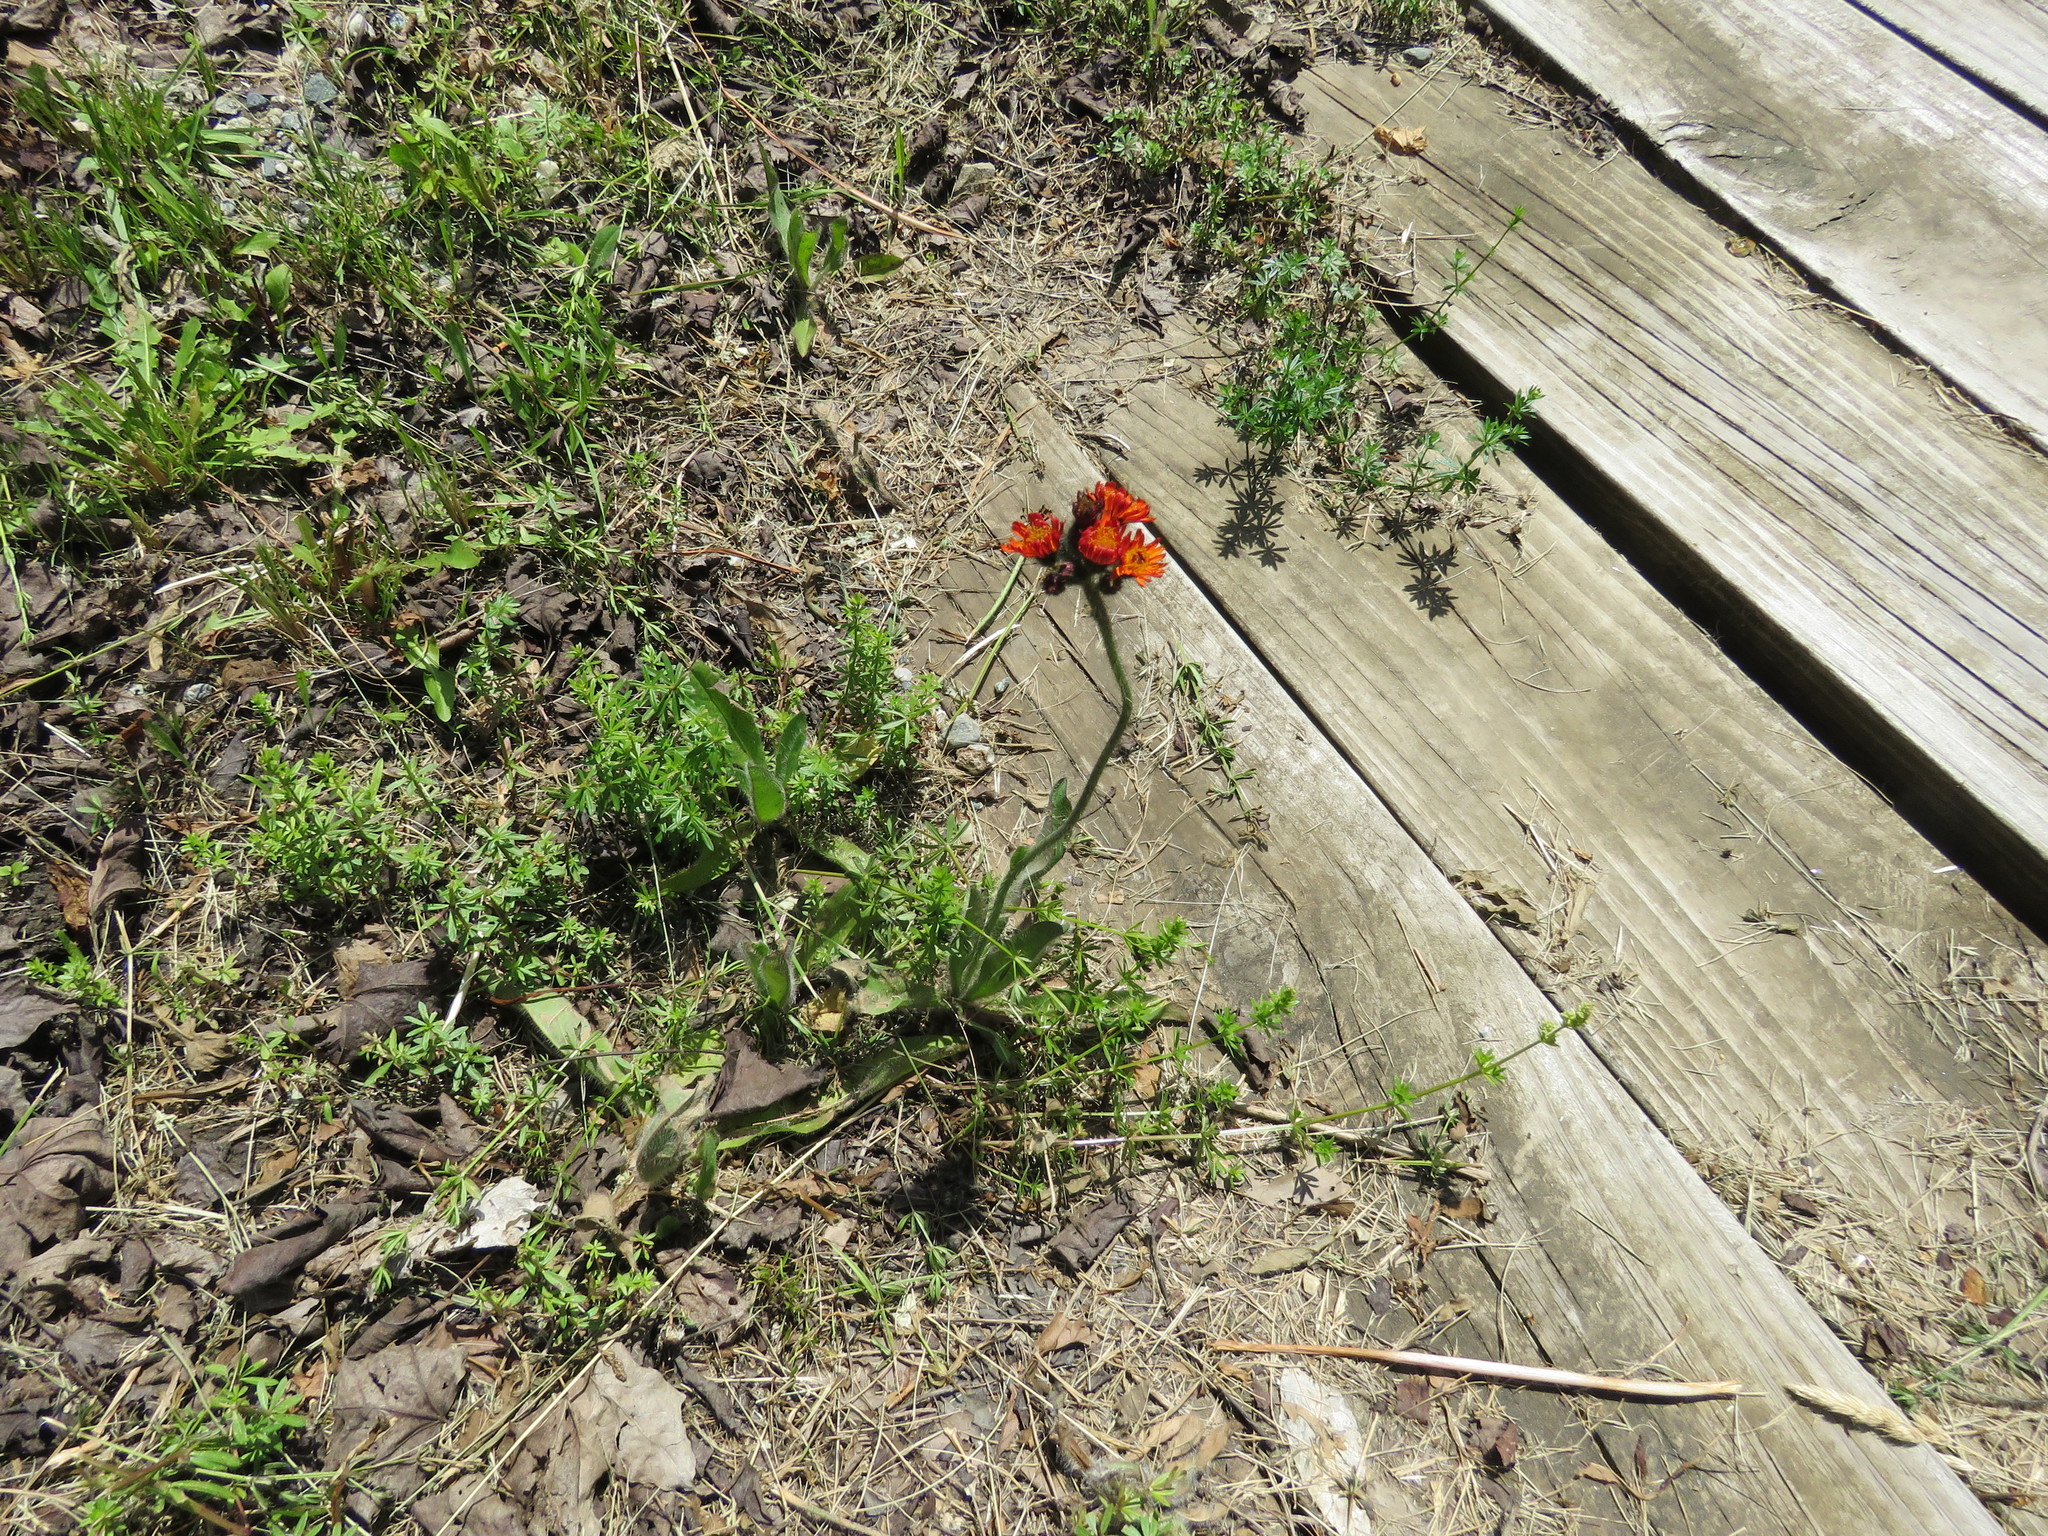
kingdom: Plantae
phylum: Tracheophyta
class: Magnoliopsida
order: Asterales
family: Asteraceae
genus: Pilosella
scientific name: Pilosella aurantiaca
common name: Fox-and-cubs
